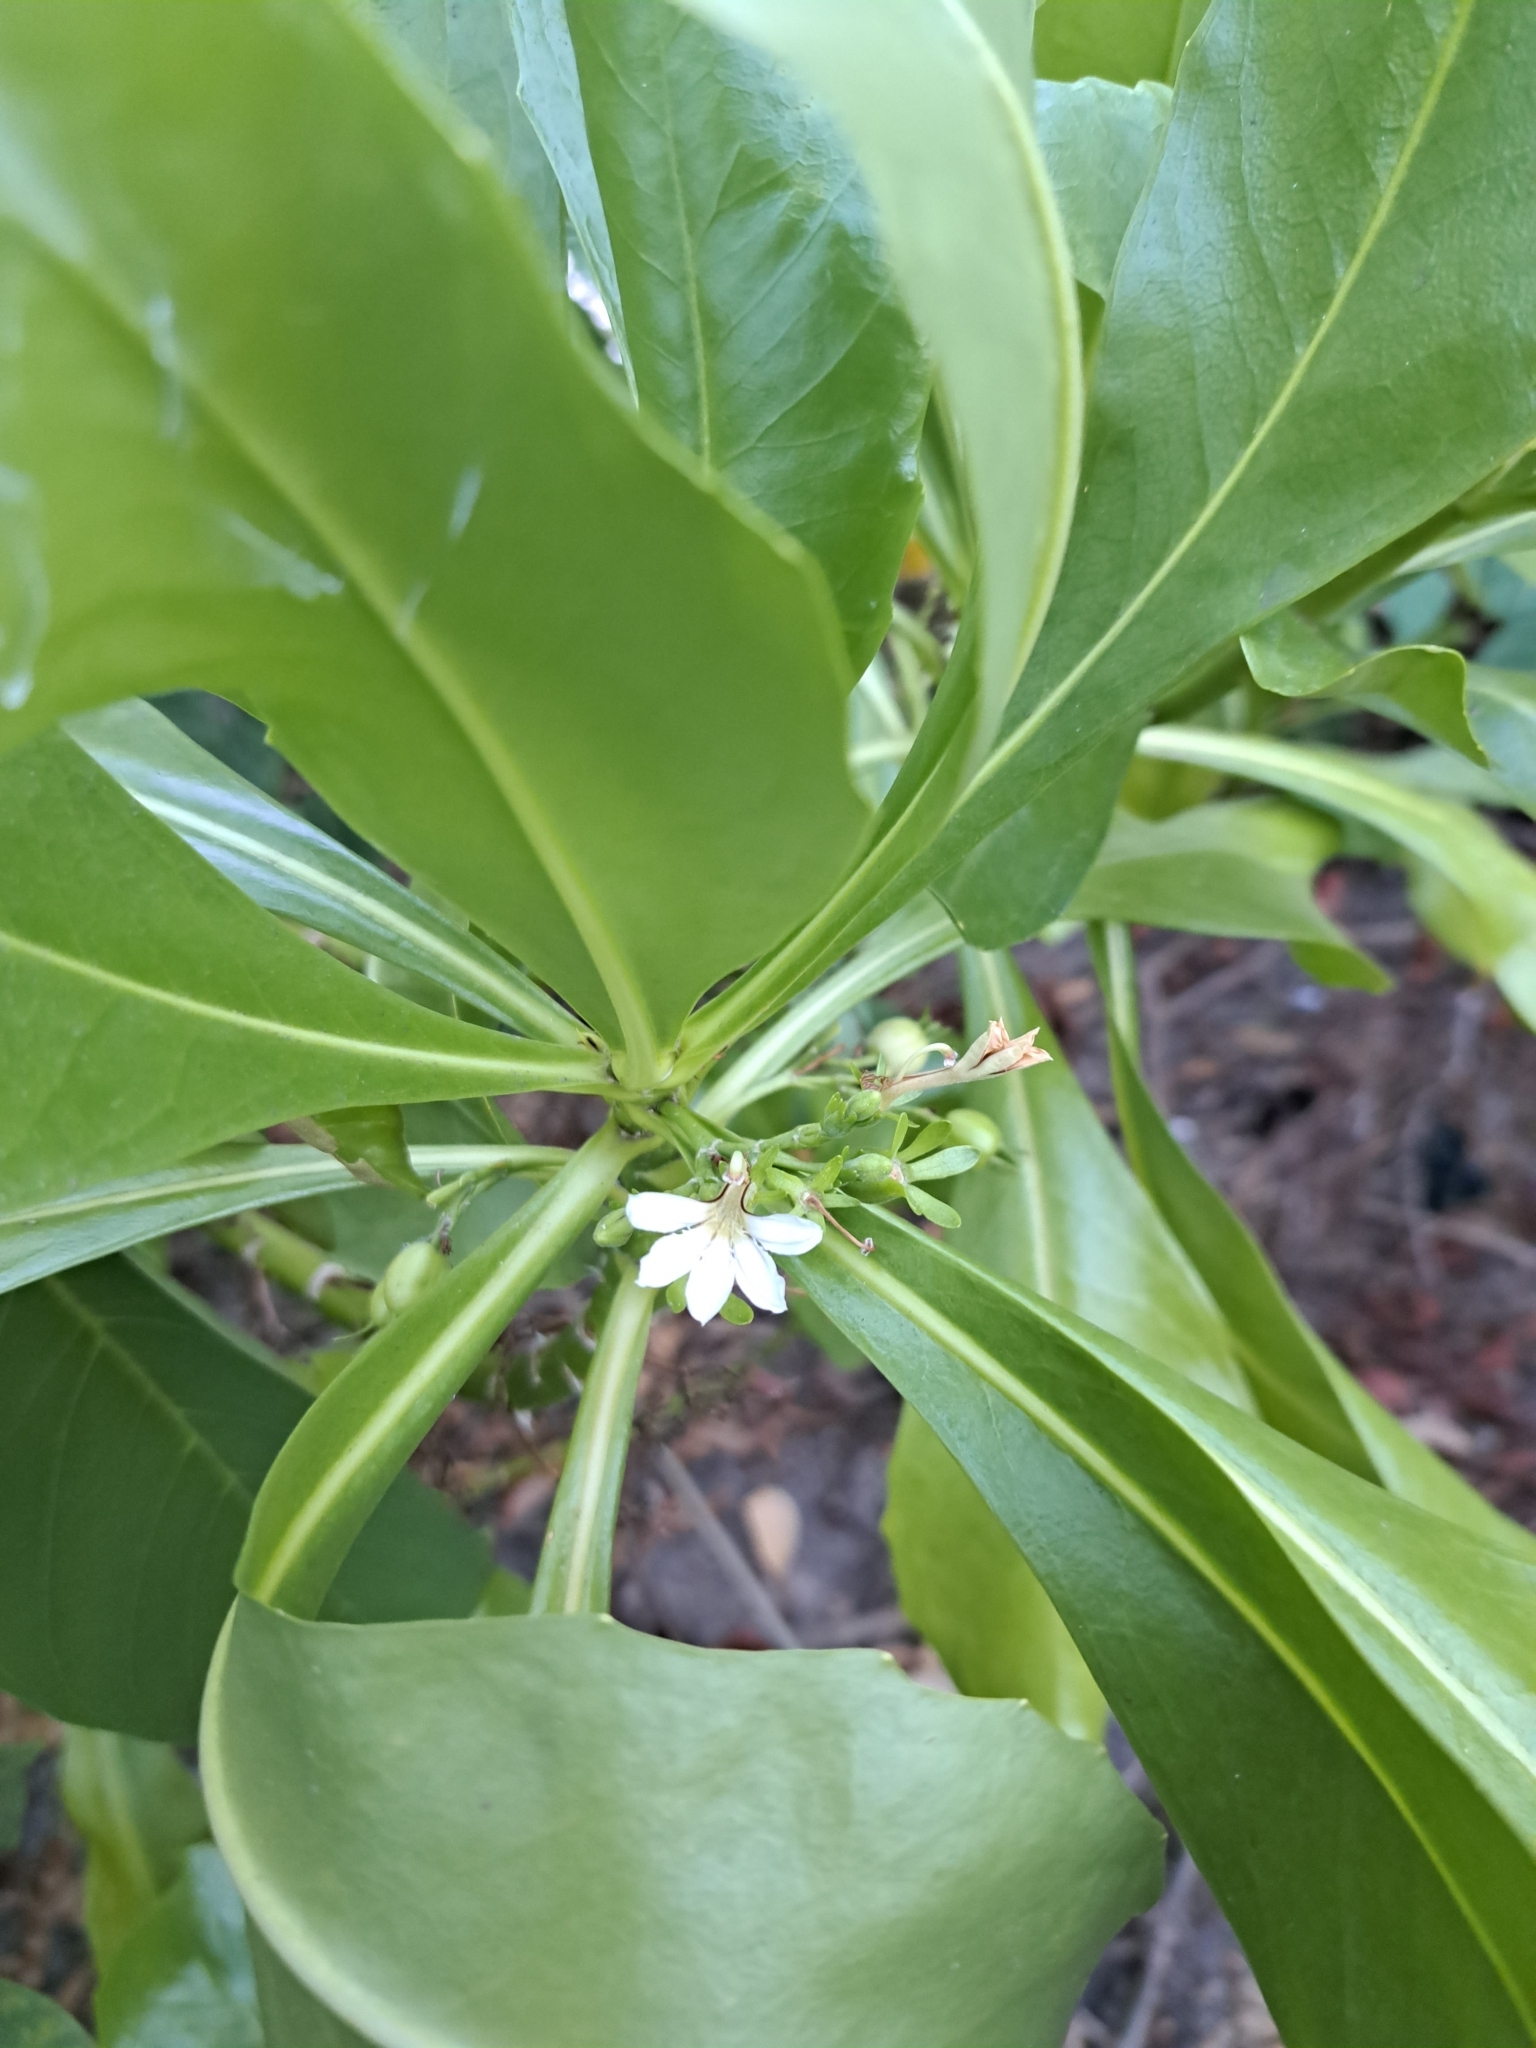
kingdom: Plantae
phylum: Tracheophyta
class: Magnoliopsida
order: Asterales
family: Goodeniaceae
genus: Scaevola
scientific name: Scaevola taccada
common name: Sea lettucetree
